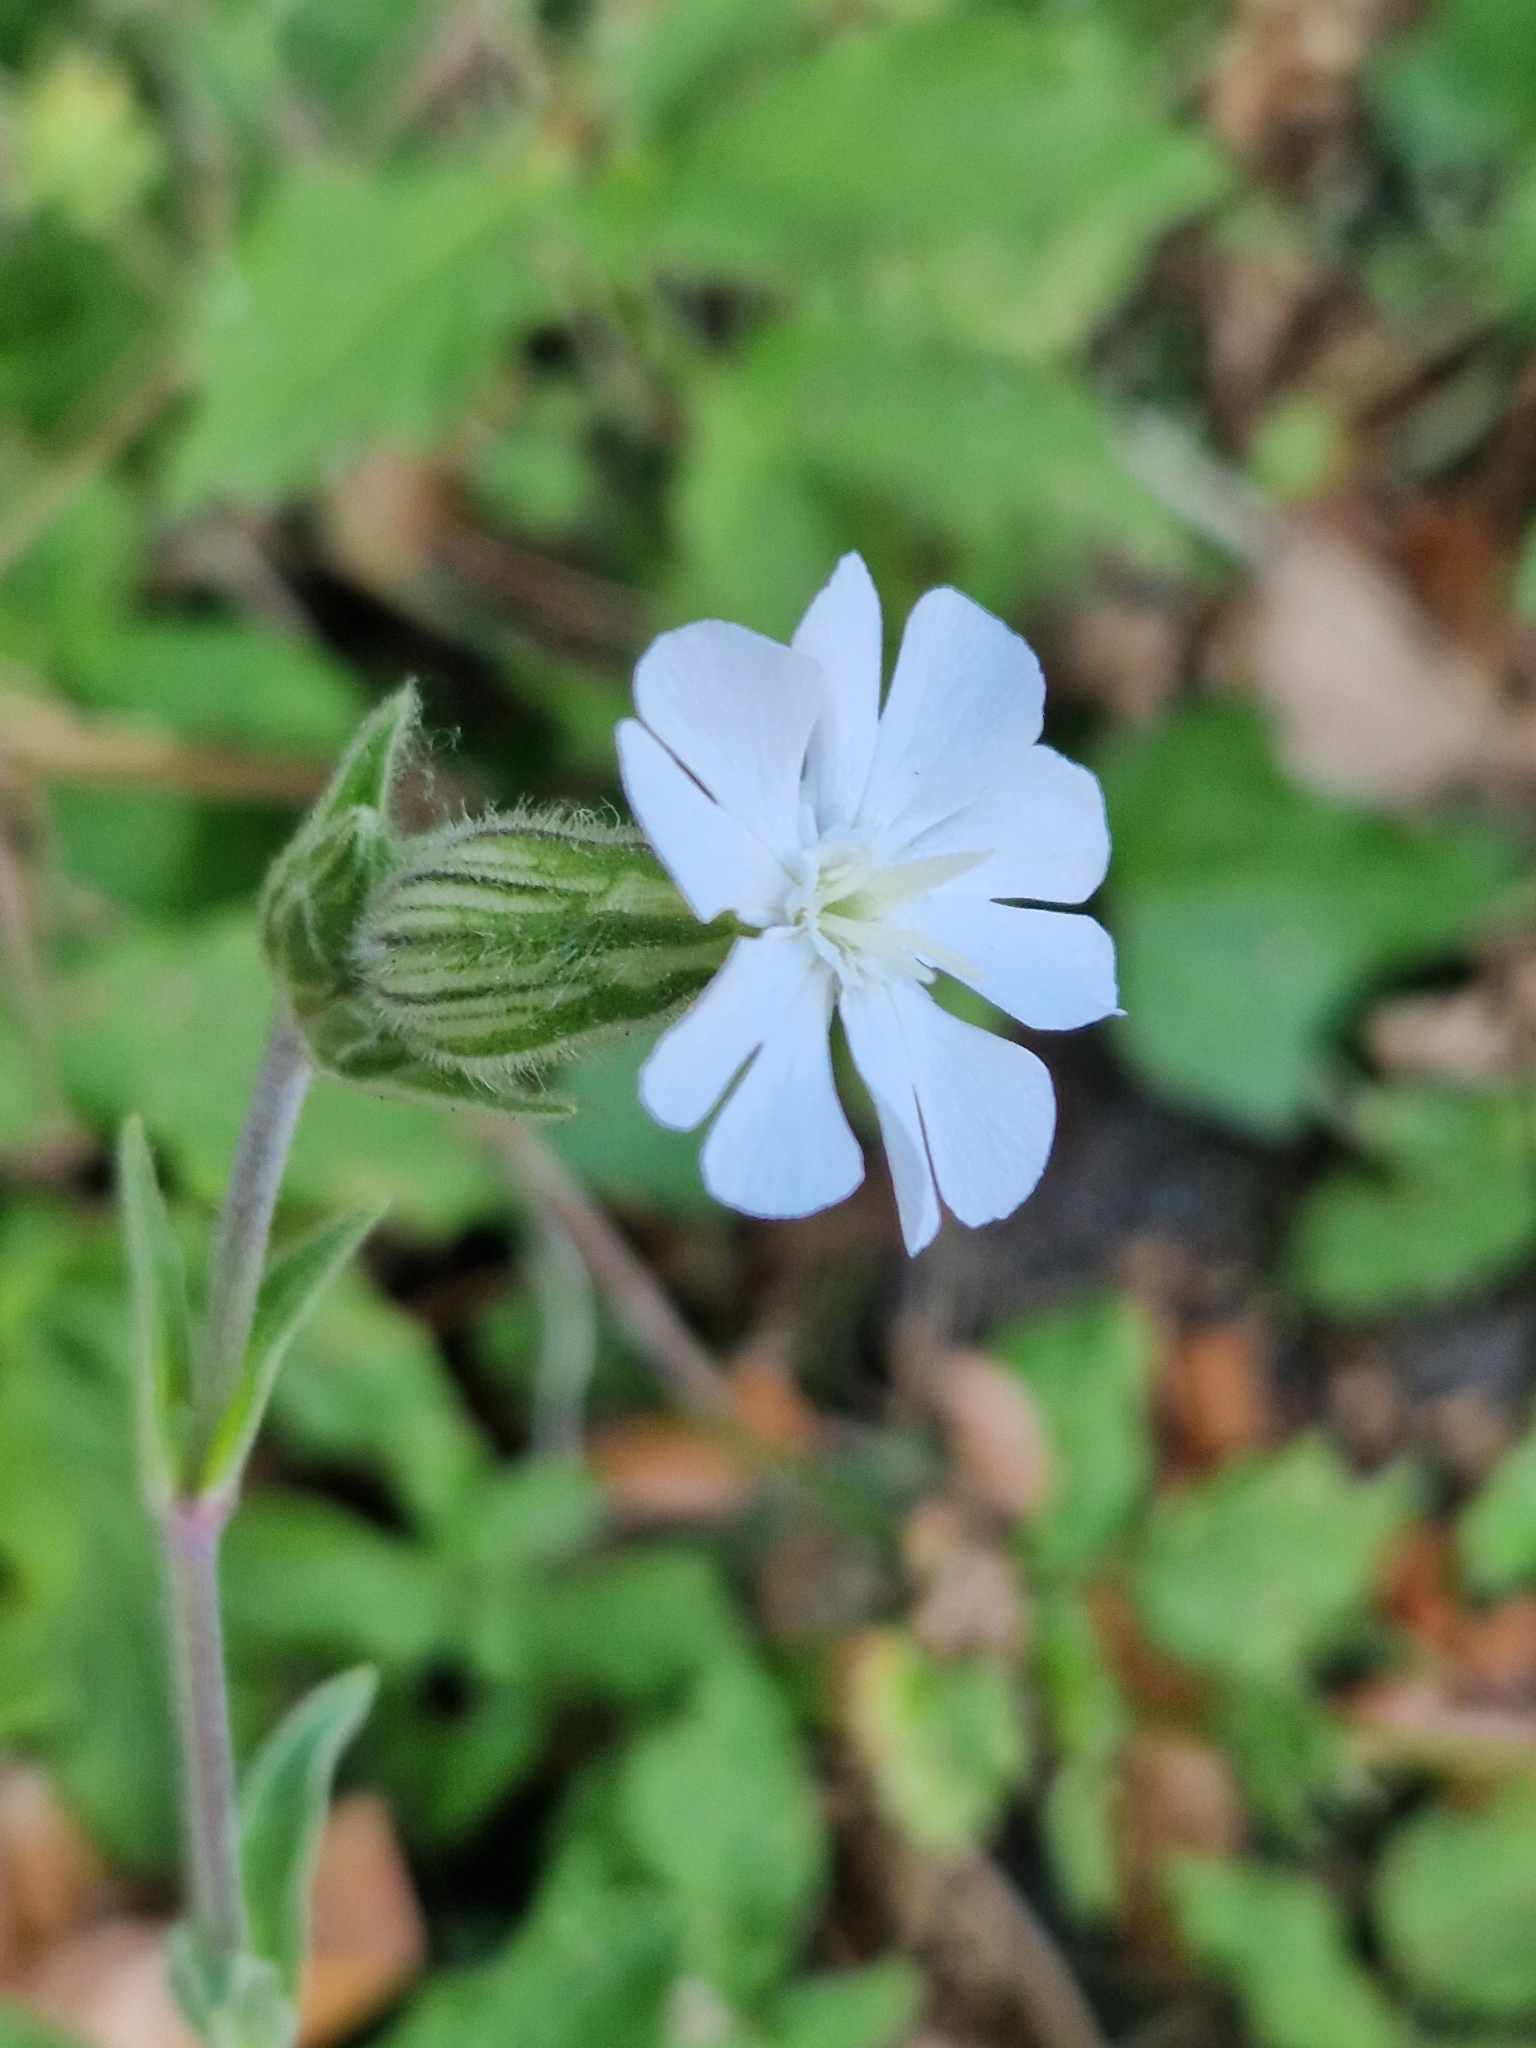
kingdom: Plantae
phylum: Tracheophyta
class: Magnoliopsida
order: Caryophyllales
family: Caryophyllaceae
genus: Silene
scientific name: Silene latifolia
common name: White campion
